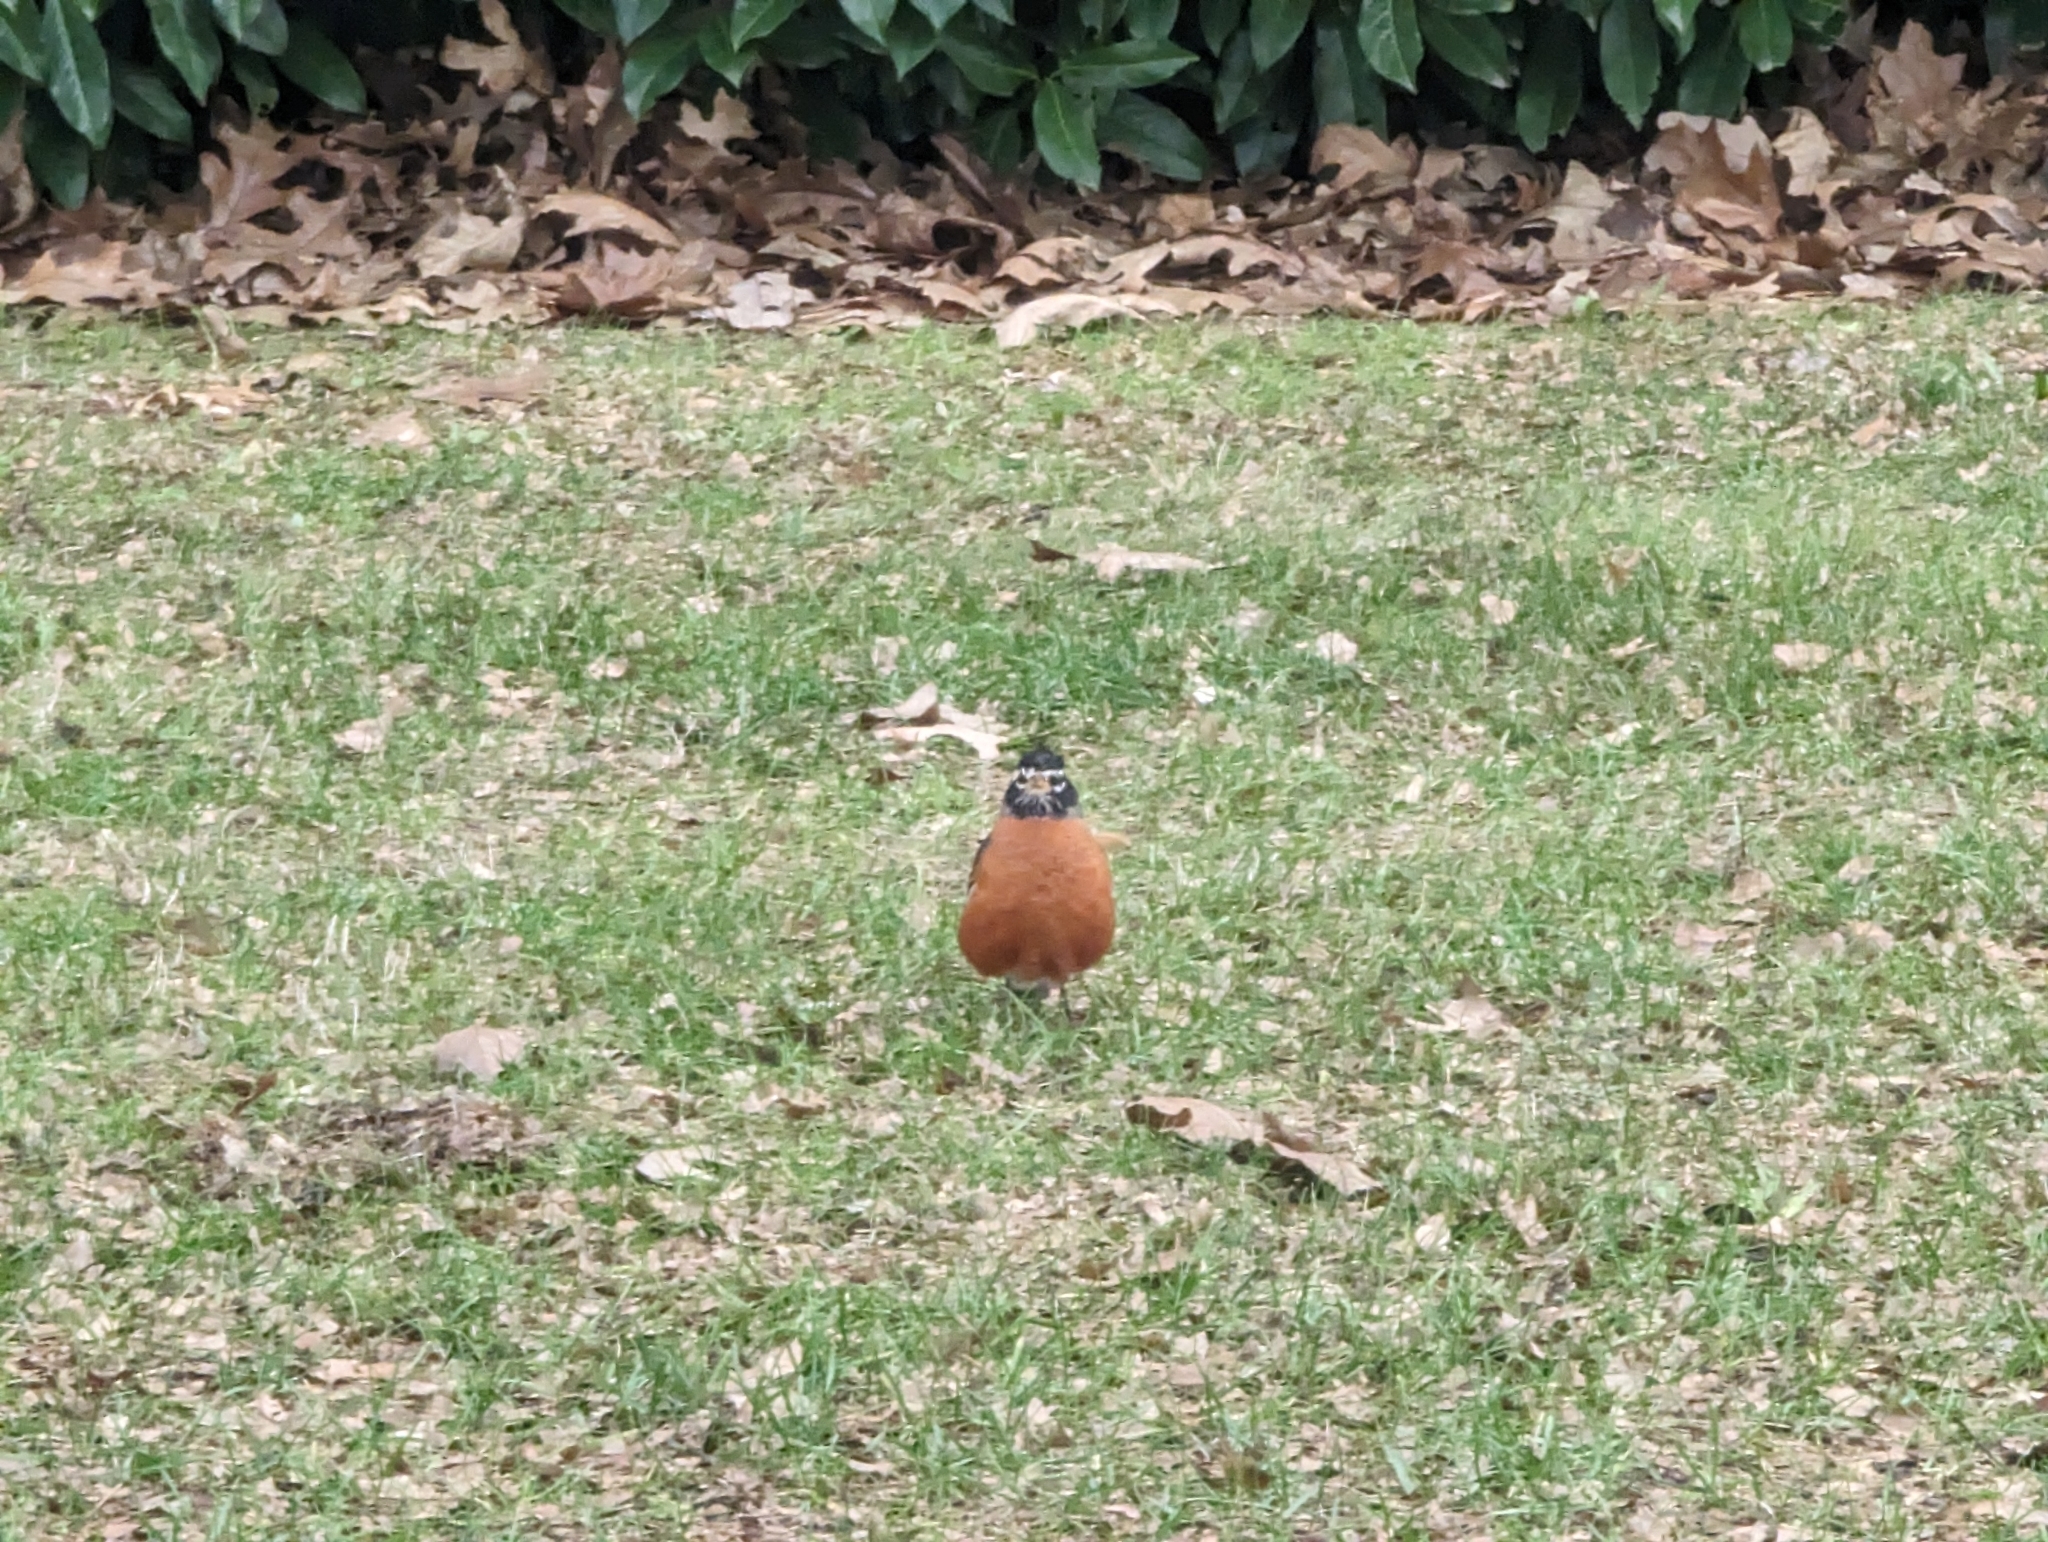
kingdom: Animalia
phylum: Chordata
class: Aves
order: Passeriformes
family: Turdidae
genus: Turdus
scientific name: Turdus migratorius
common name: American robin
